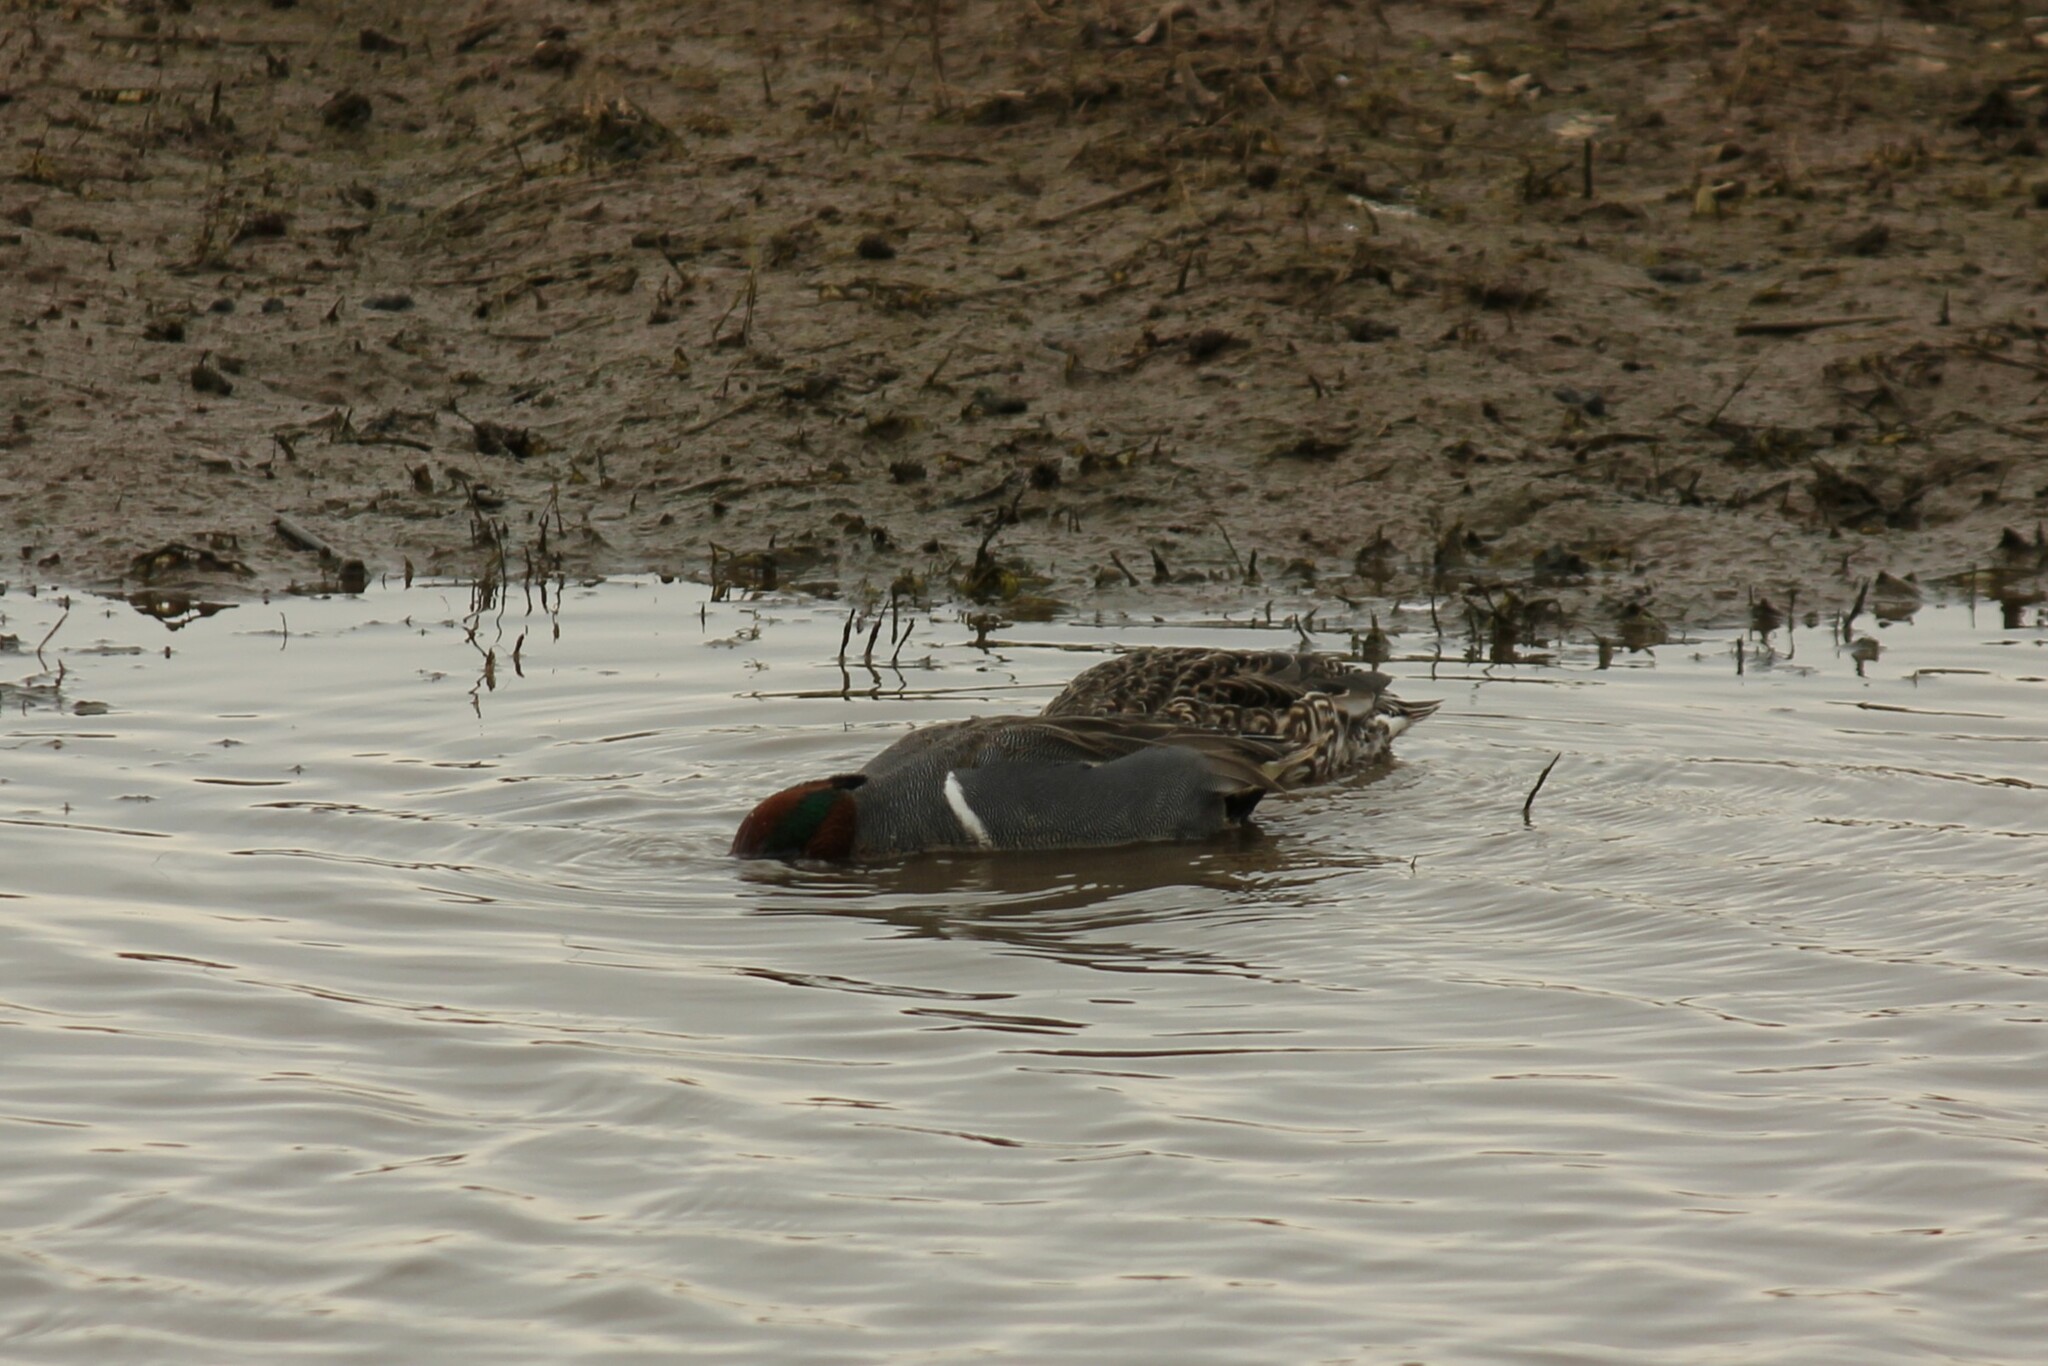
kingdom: Animalia
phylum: Chordata
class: Aves
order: Anseriformes
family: Anatidae
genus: Anas
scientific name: Anas crecca
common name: Eurasian teal
